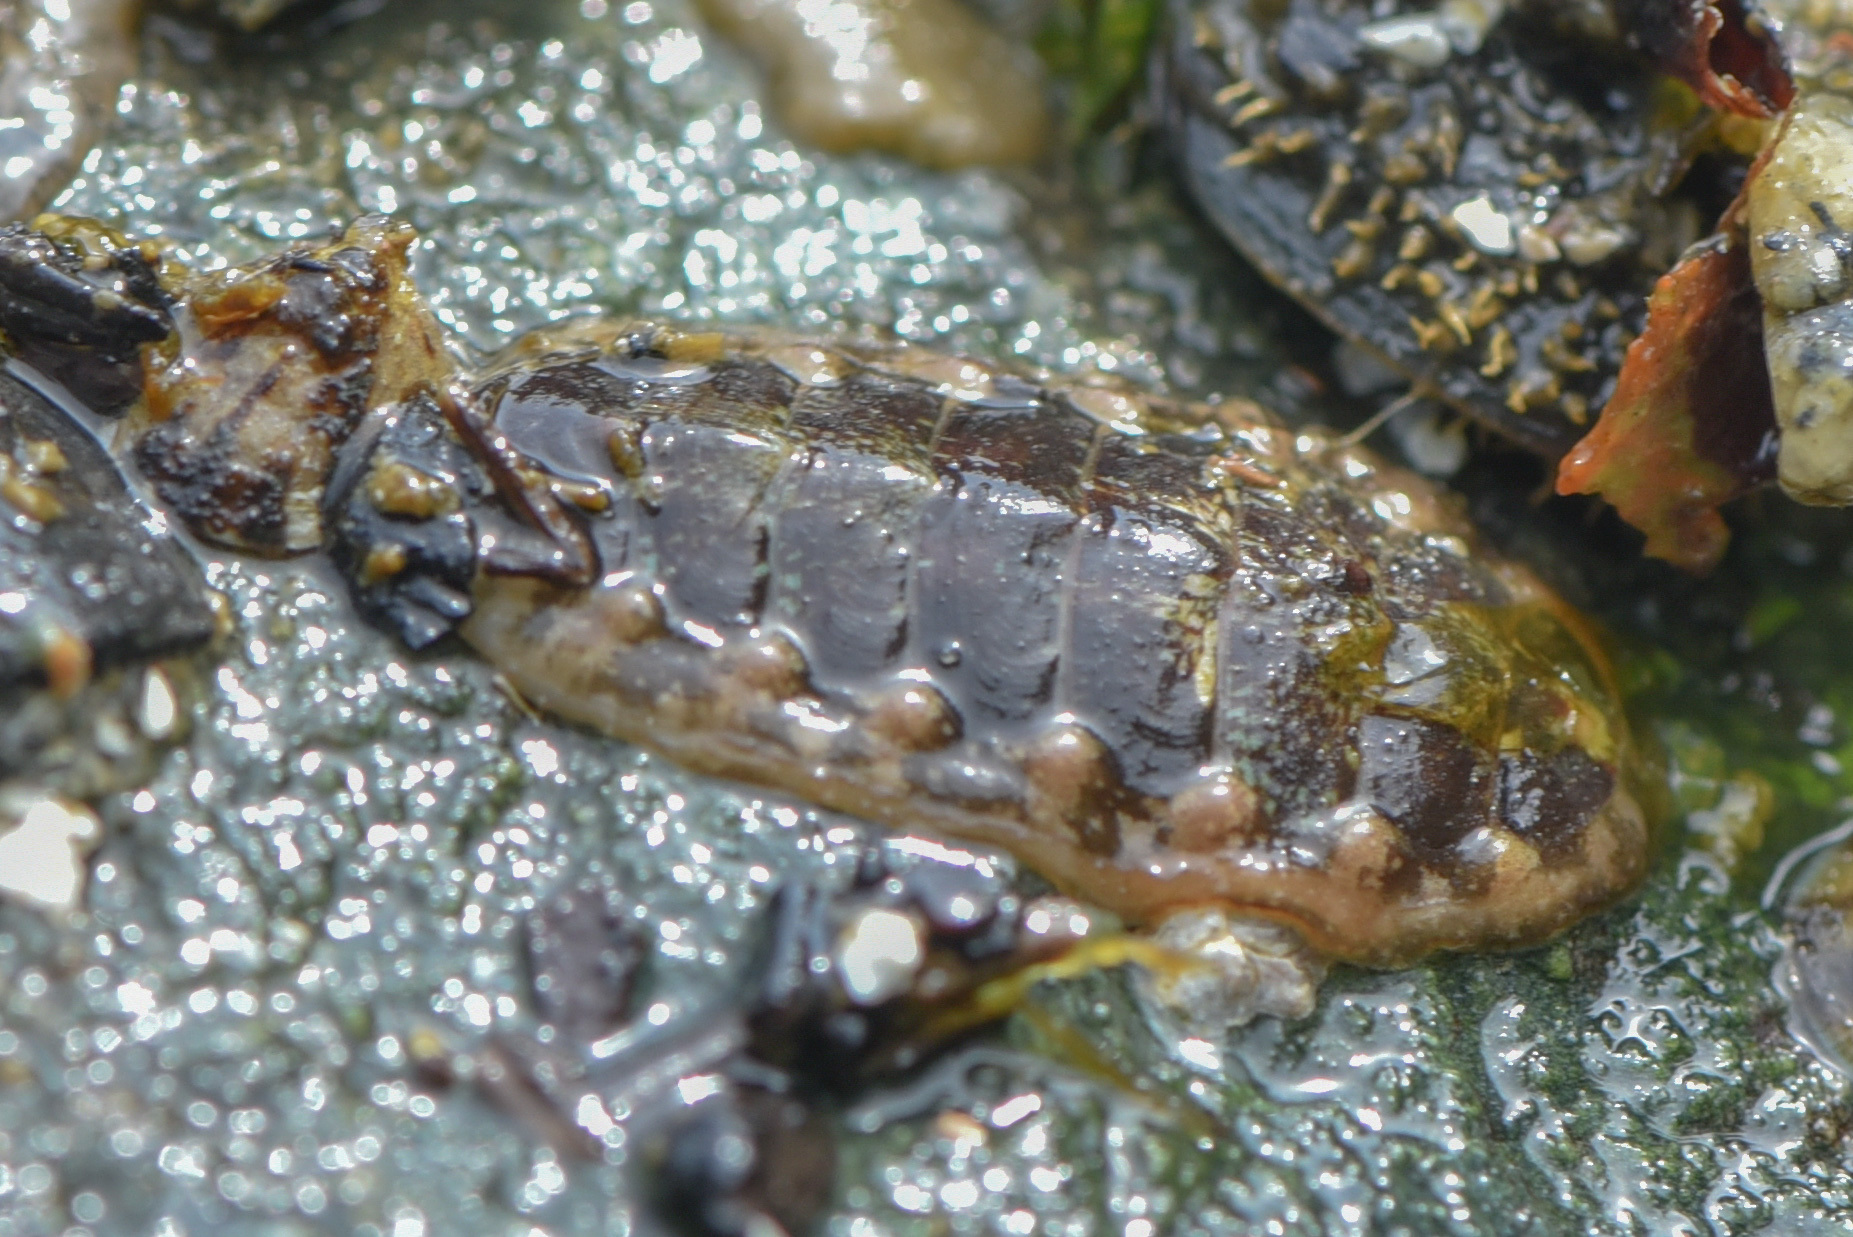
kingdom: Animalia
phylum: Mollusca
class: Polyplacophora
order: Chitonida
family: Tonicellidae
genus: Cyanoplax
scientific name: Cyanoplax dentiens
